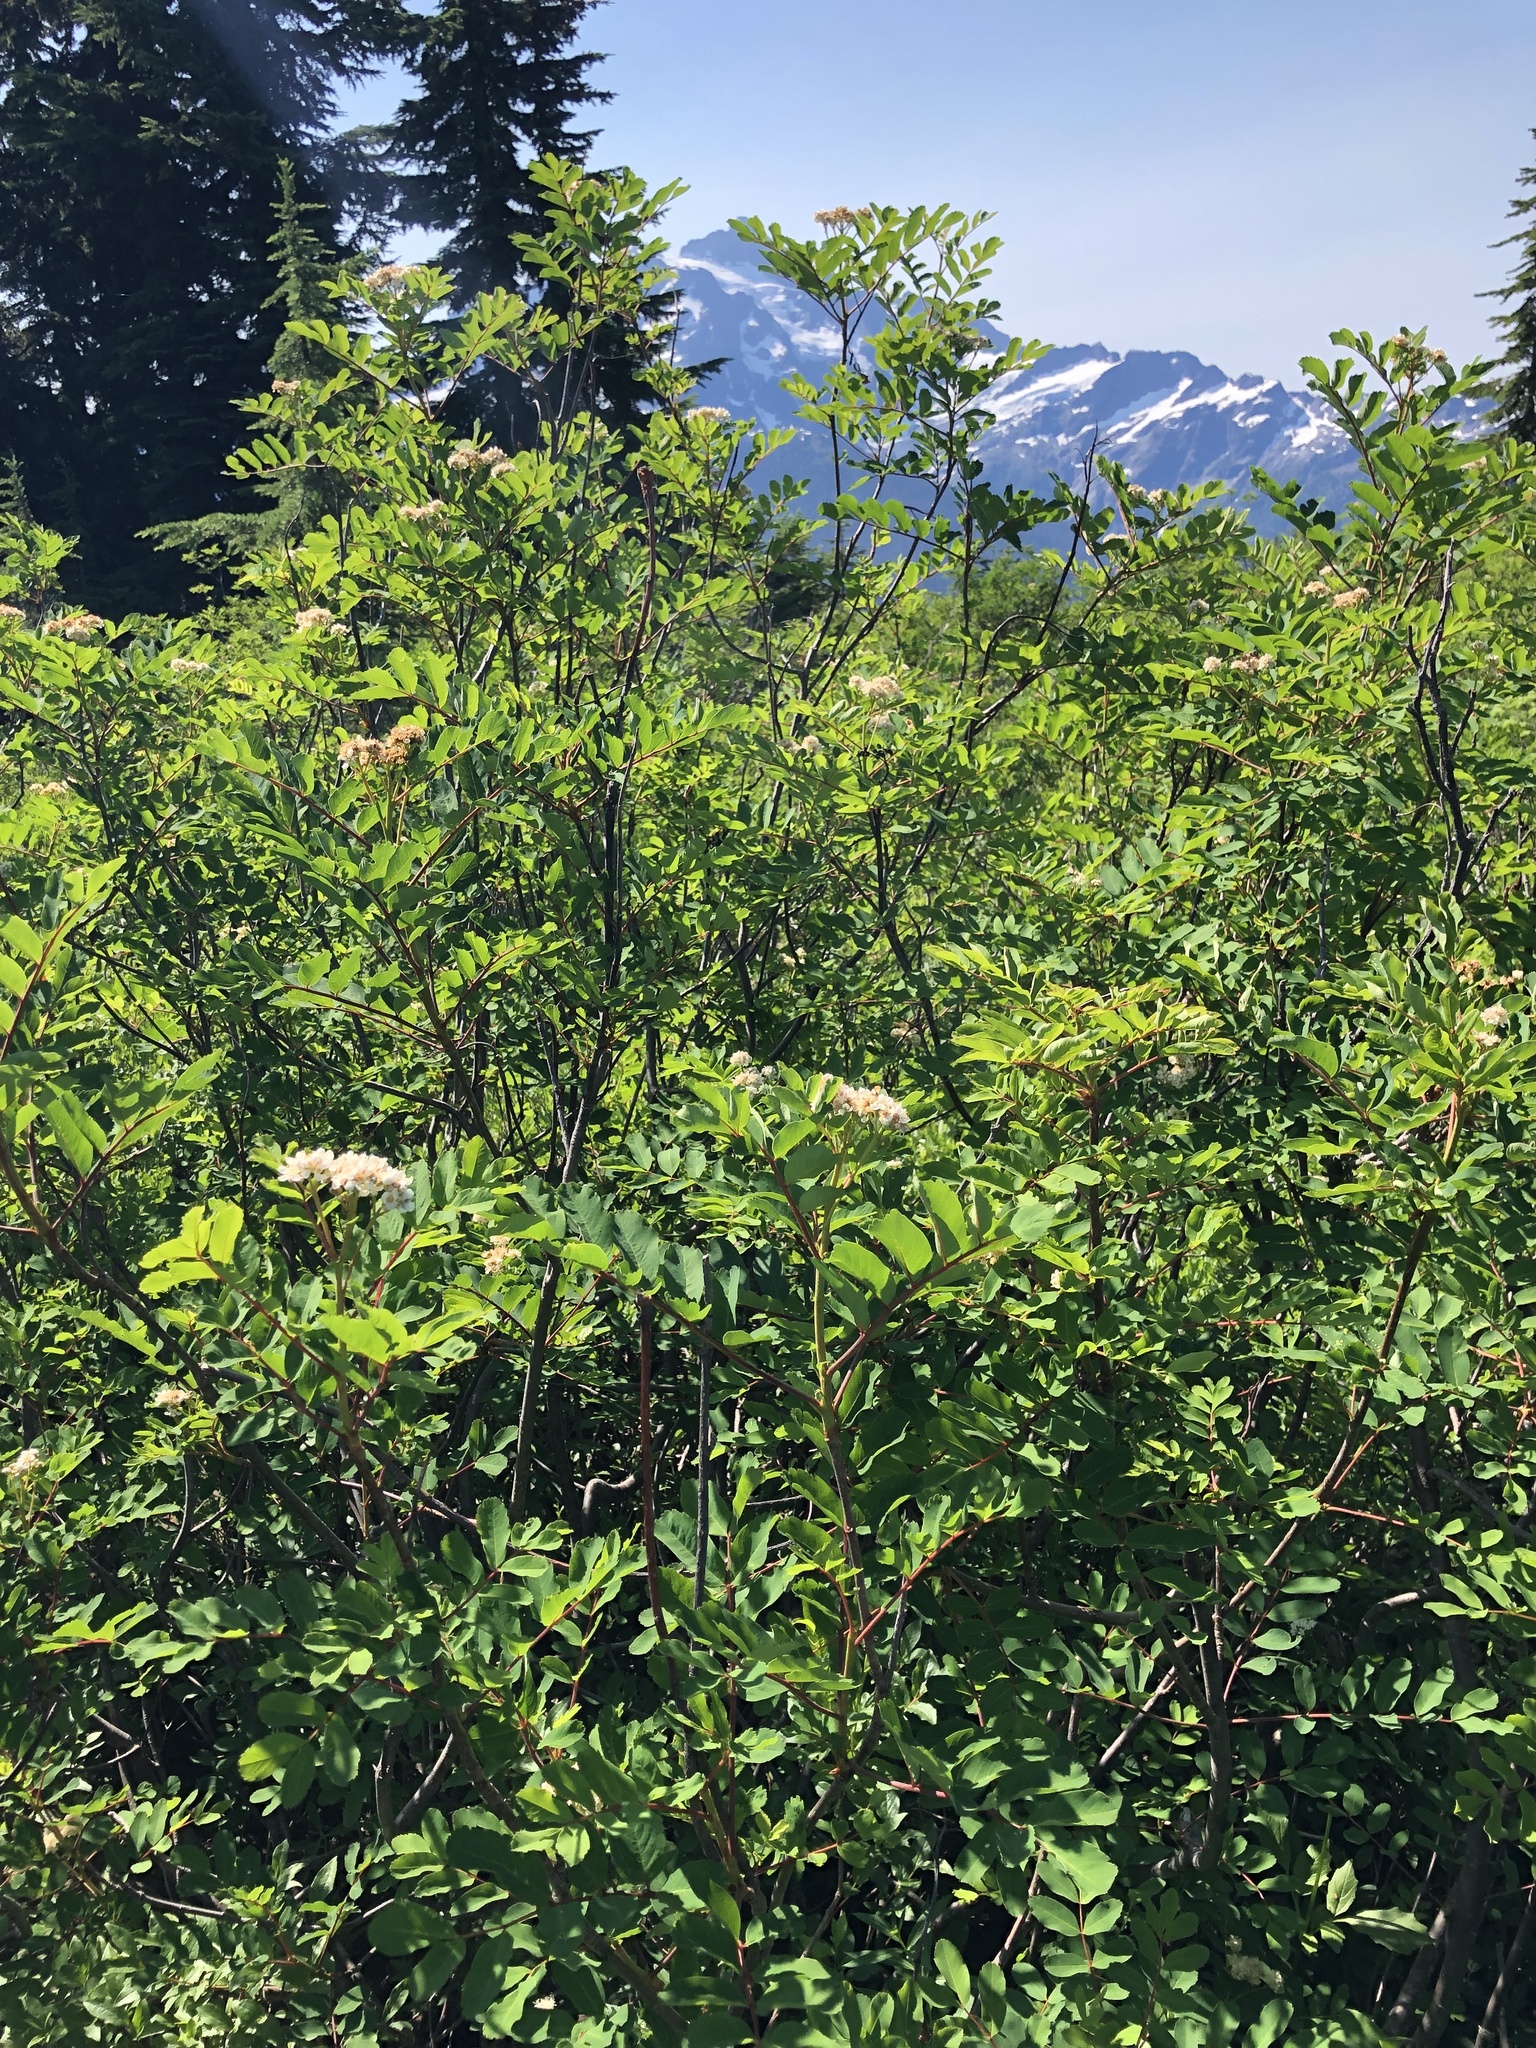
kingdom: Plantae
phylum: Tracheophyta
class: Magnoliopsida
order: Rosales
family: Rosaceae
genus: Sorbus
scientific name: Sorbus sitchensis
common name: Sitka mountain-ash
